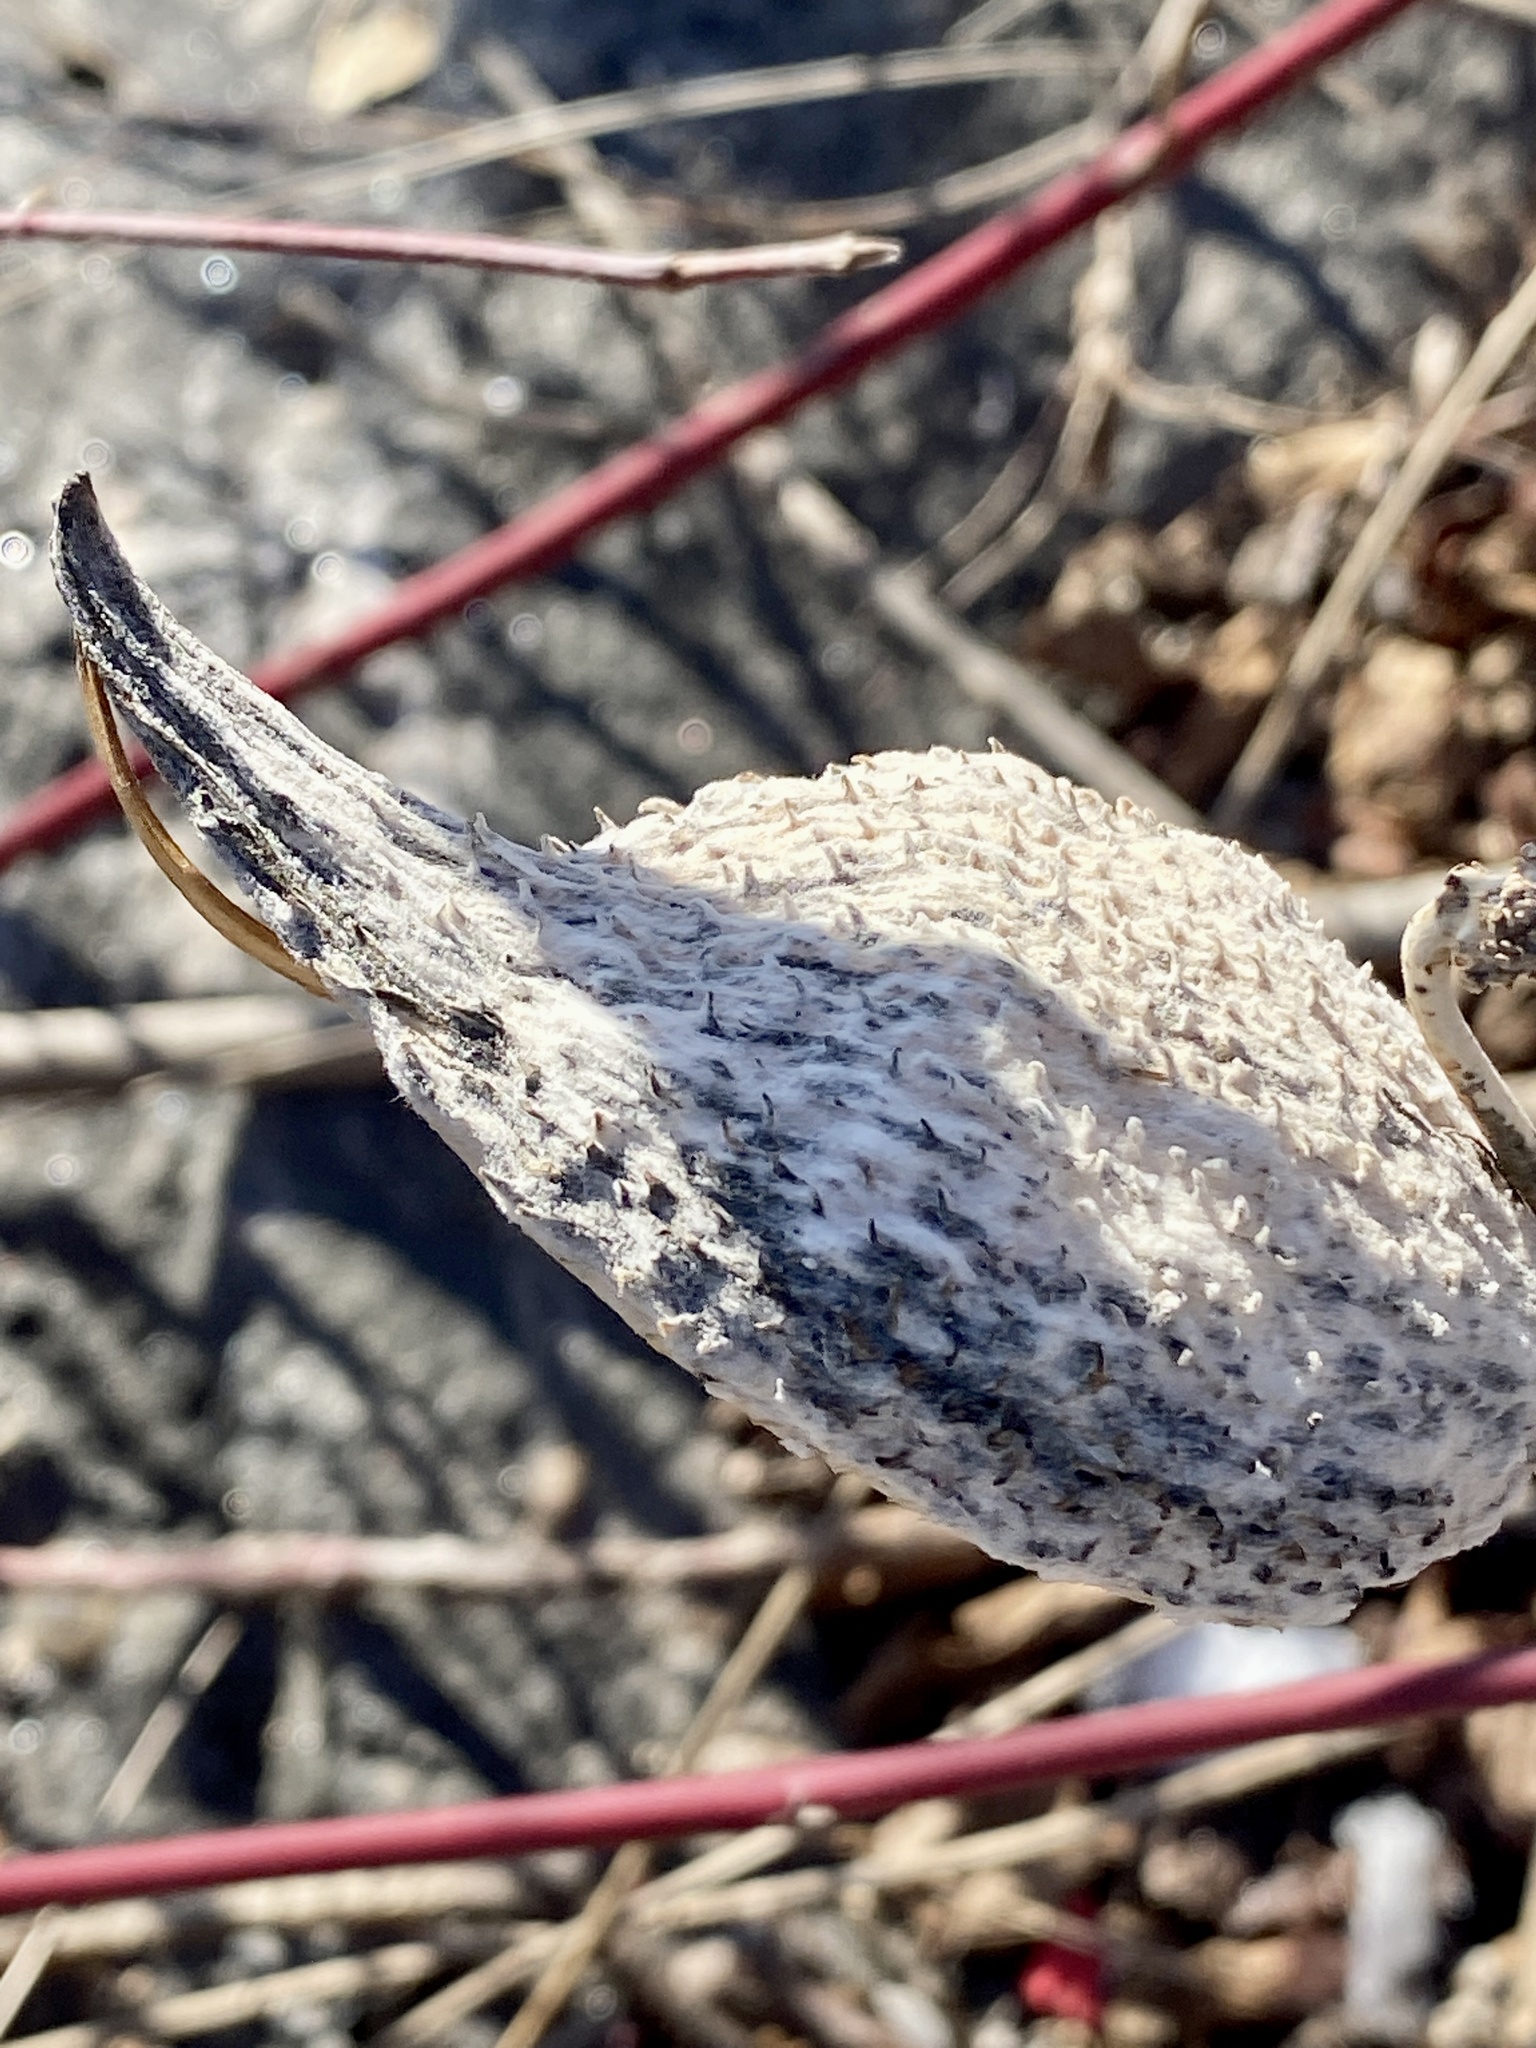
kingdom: Plantae
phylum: Tracheophyta
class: Magnoliopsida
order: Gentianales
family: Apocynaceae
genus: Asclepias
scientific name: Asclepias syriaca
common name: Common milkweed
